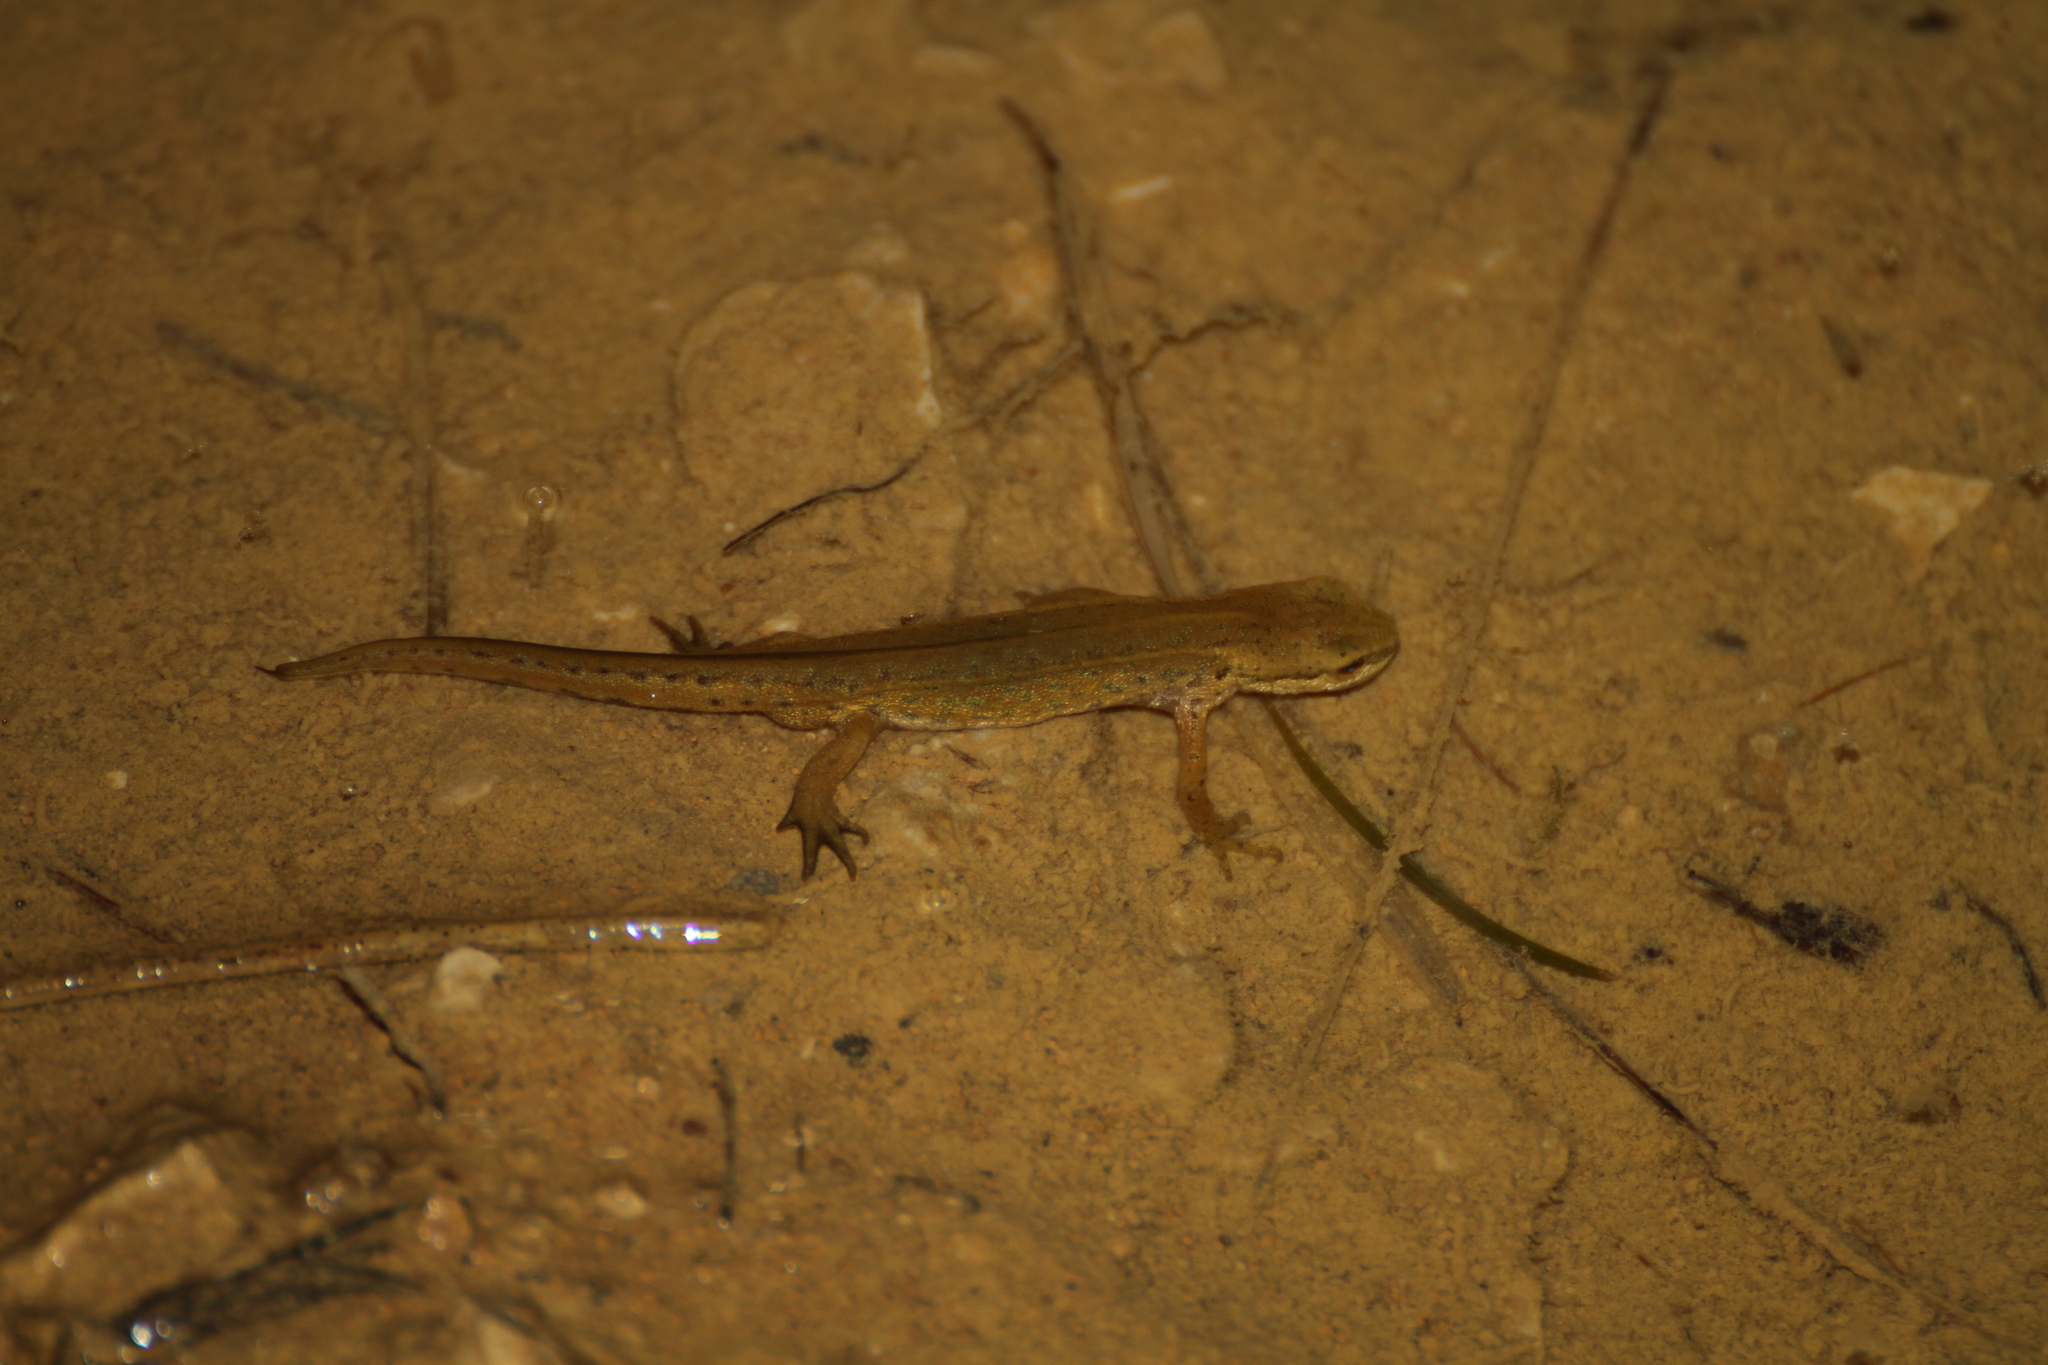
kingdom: Animalia
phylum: Chordata
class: Amphibia
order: Caudata
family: Salamandridae
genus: Lissotriton
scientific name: Lissotriton helveticus
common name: Palmate newt
